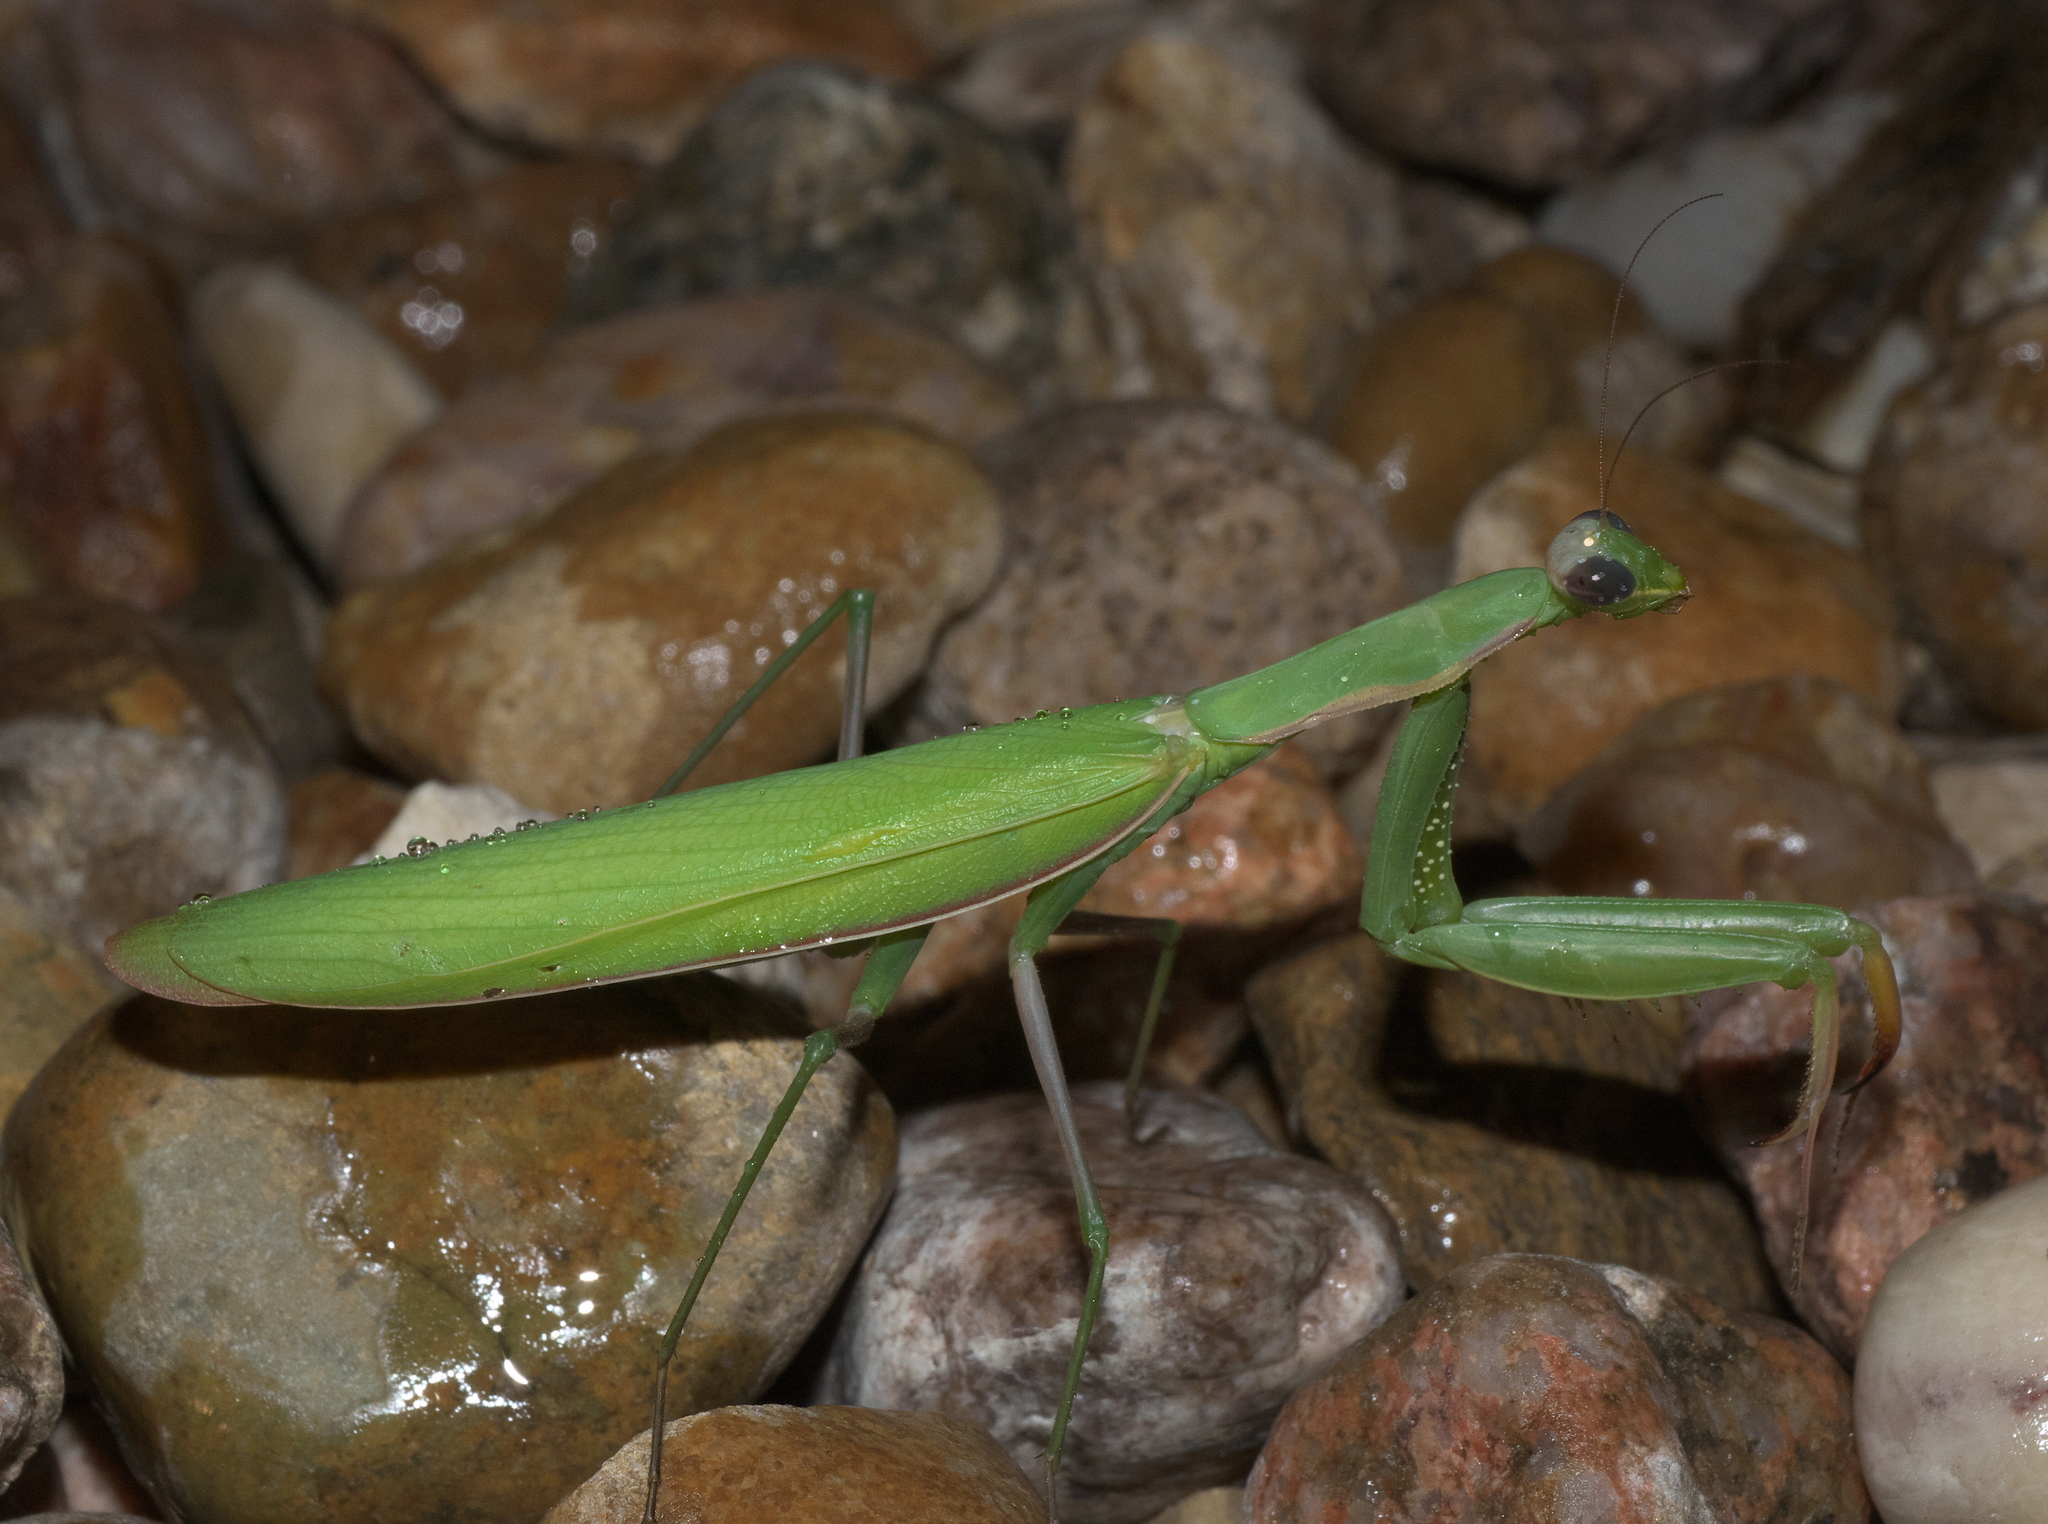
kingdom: Animalia
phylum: Arthropoda
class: Insecta
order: Mantodea
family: Mantidae
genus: Mantis
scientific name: Mantis religiosa
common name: Praying mantis
